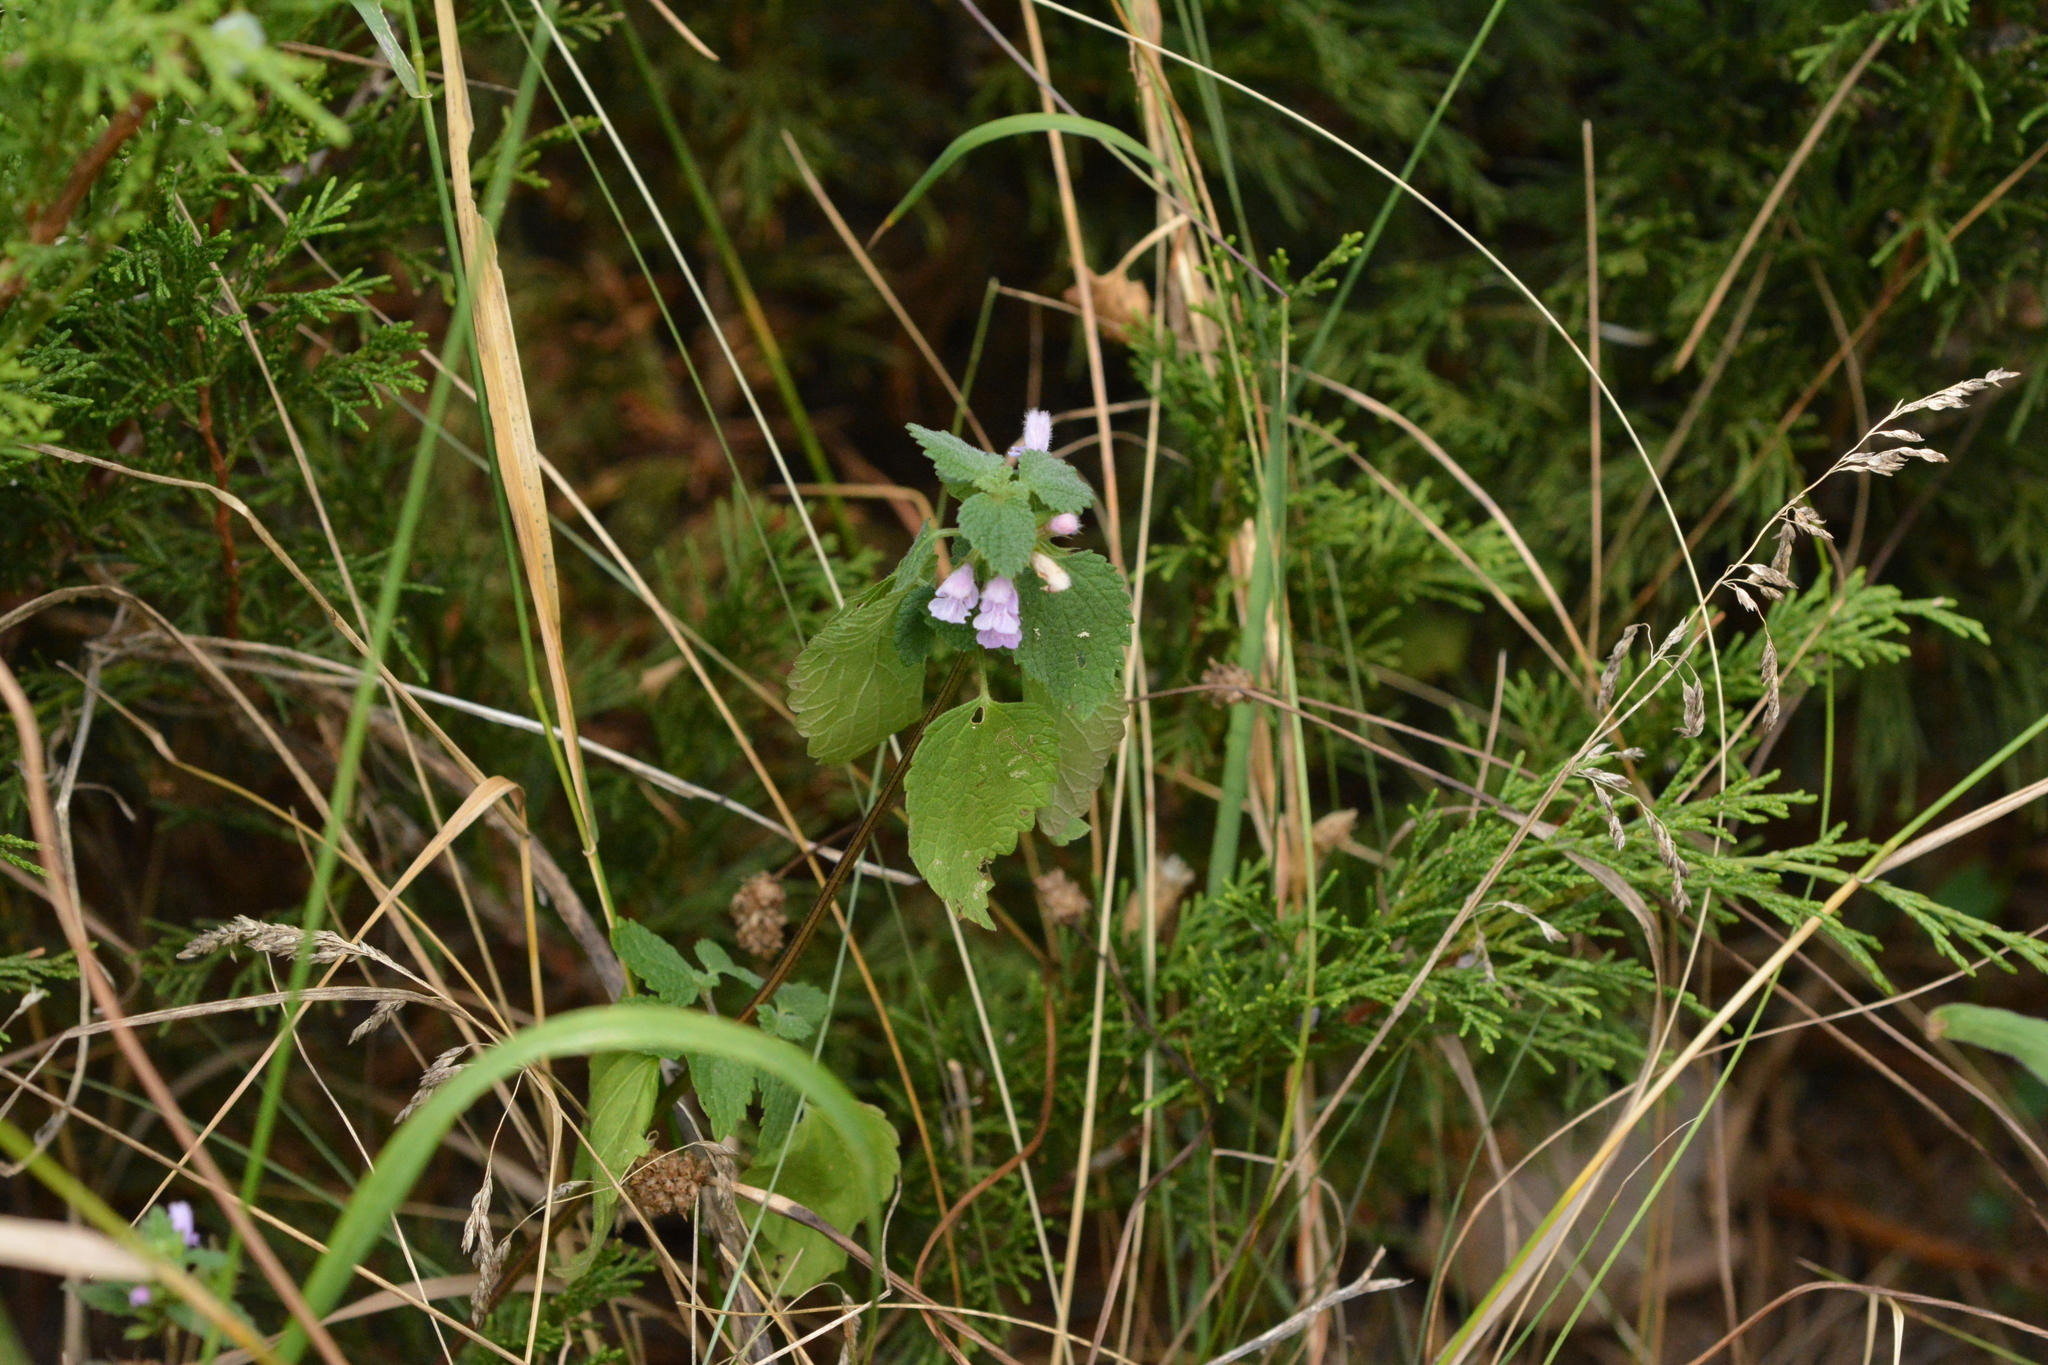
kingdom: Plantae
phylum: Tracheophyta
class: Magnoliopsida
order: Lamiales
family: Lamiaceae
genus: Ballota
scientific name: Ballota nigra
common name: Black horehound
